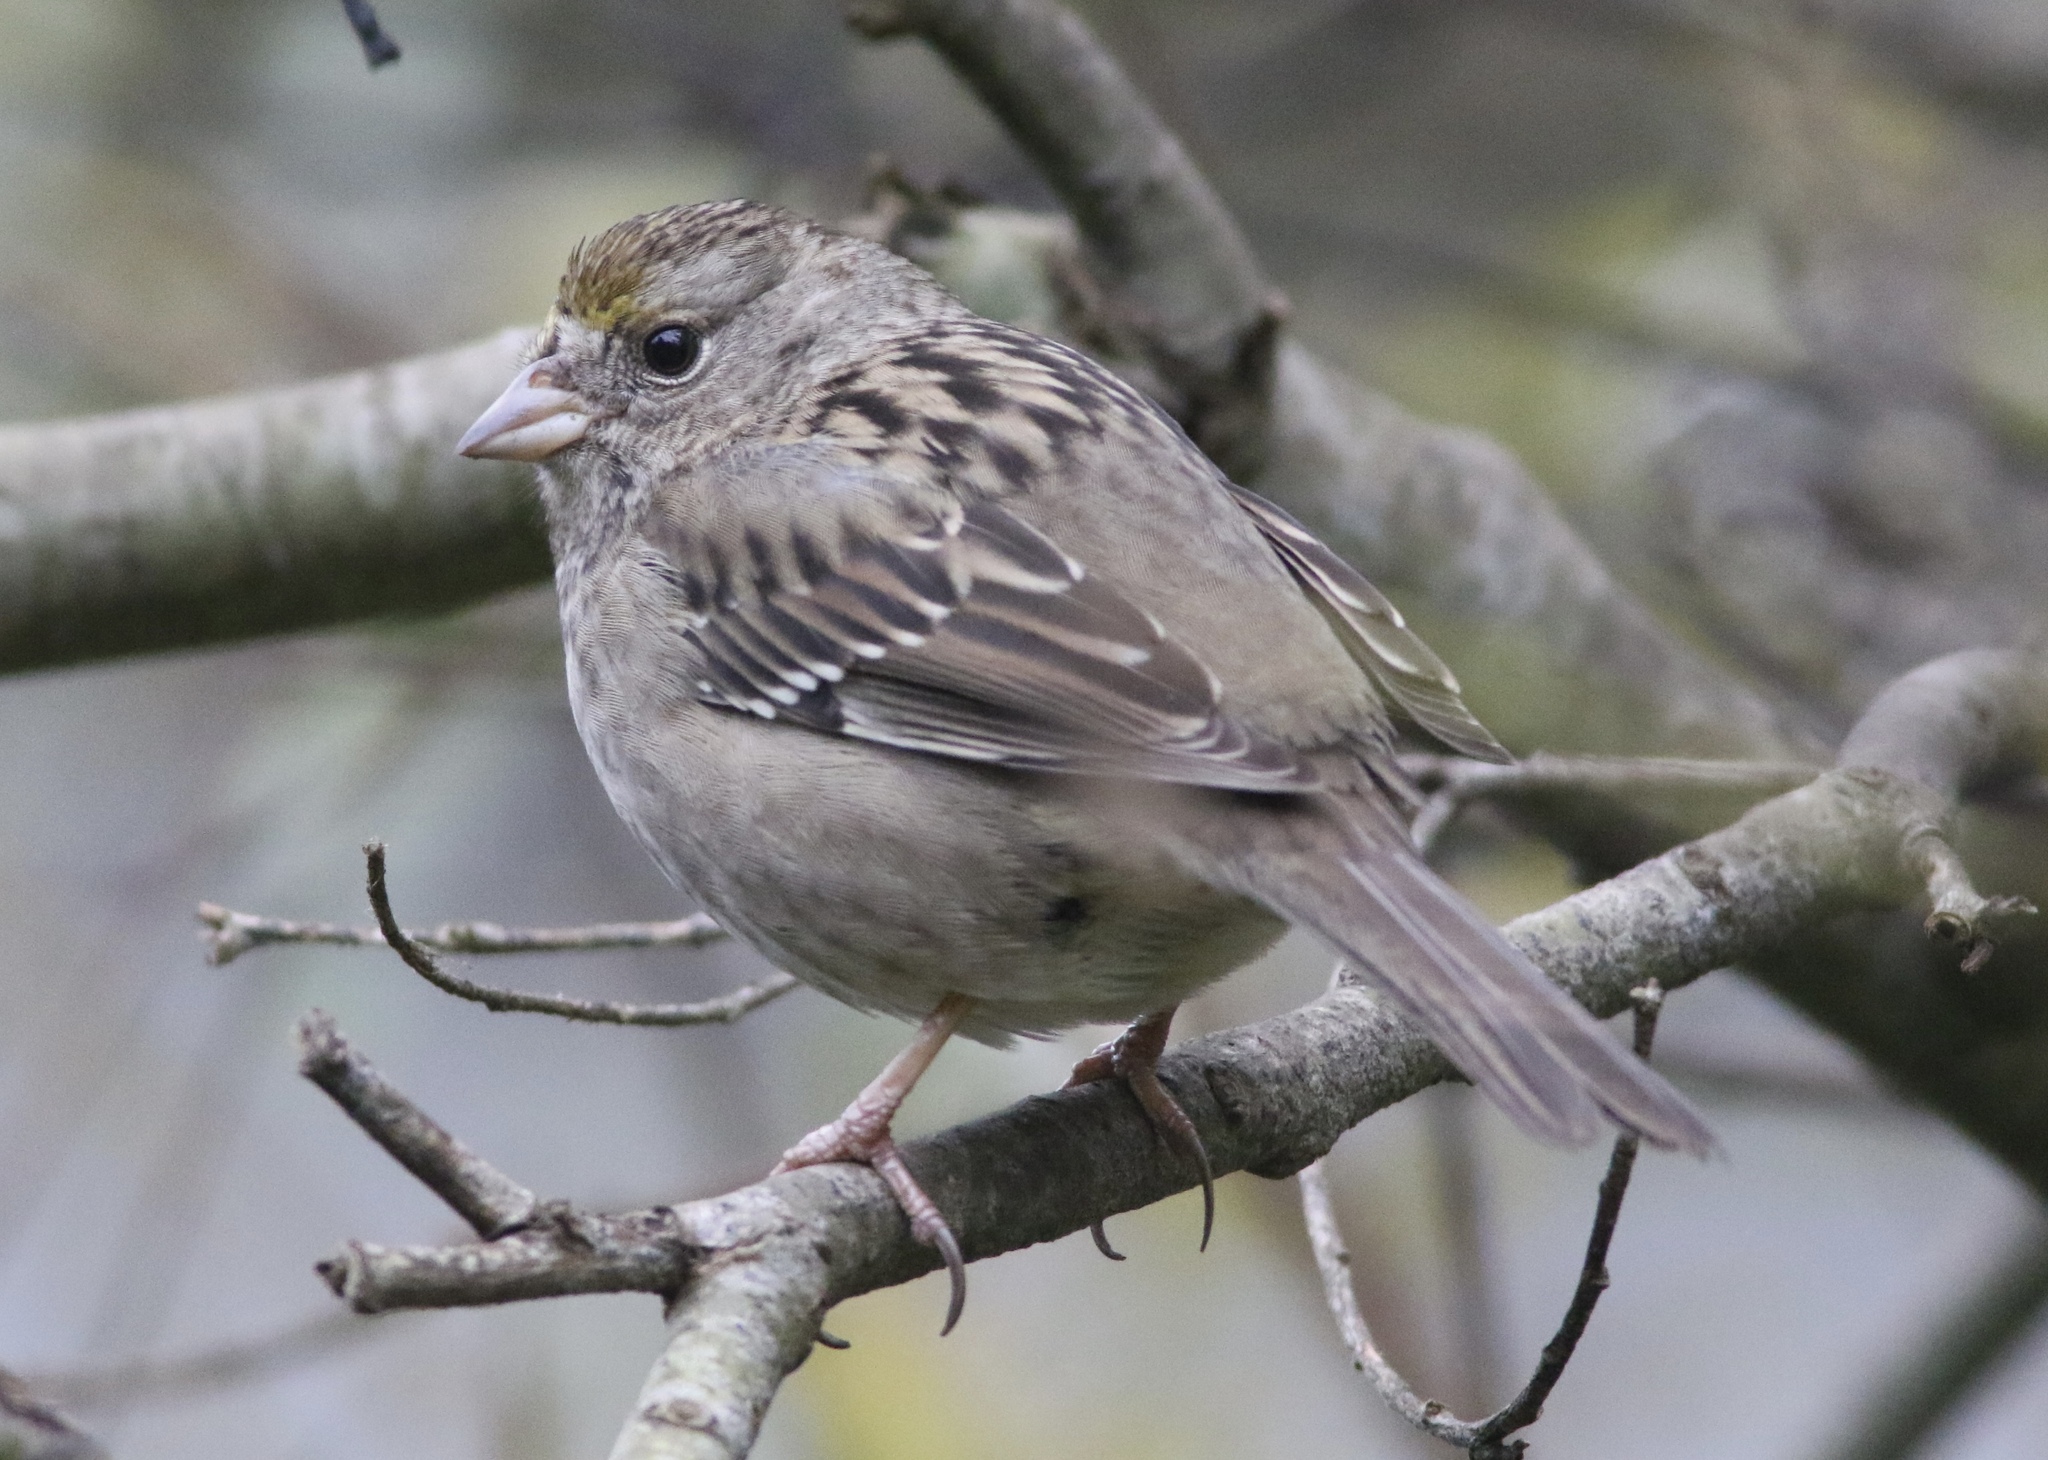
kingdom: Animalia
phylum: Chordata
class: Aves
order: Passeriformes
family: Passerellidae
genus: Zonotrichia
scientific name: Zonotrichia atricapilla
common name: Golden-crowned sparrow
